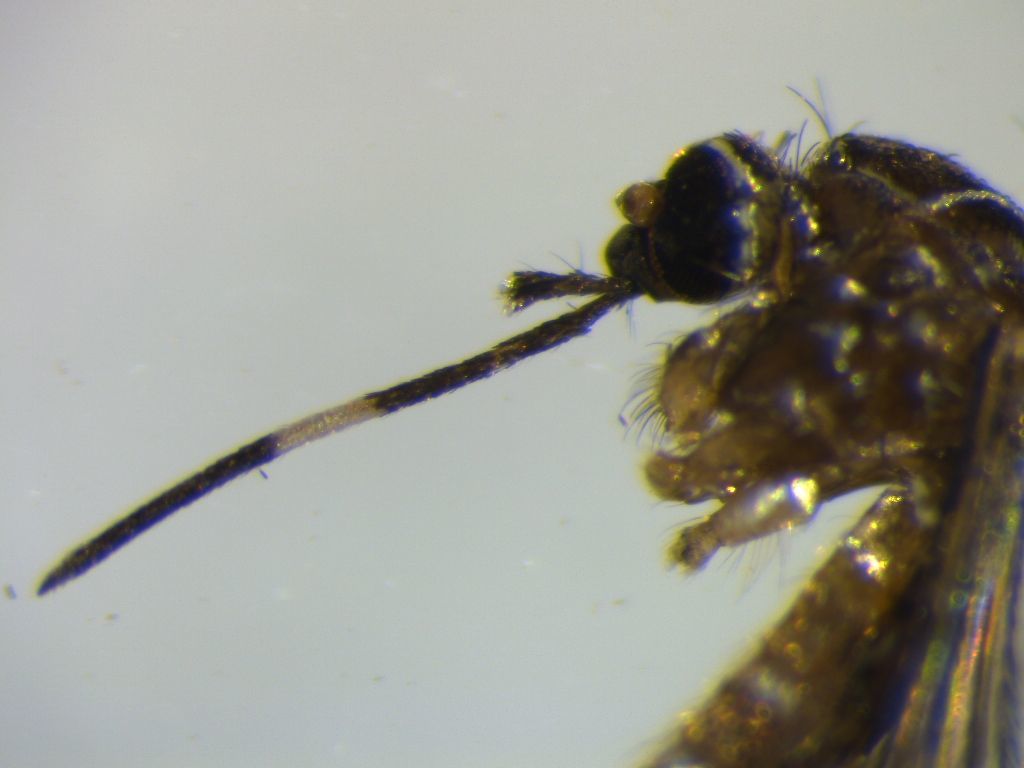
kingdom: Animalia
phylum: Arthropoda
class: Insecta
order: Diptera
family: Culicidae
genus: Aedes
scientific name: Aedes notoscriptus
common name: Australian backyard mosquito
